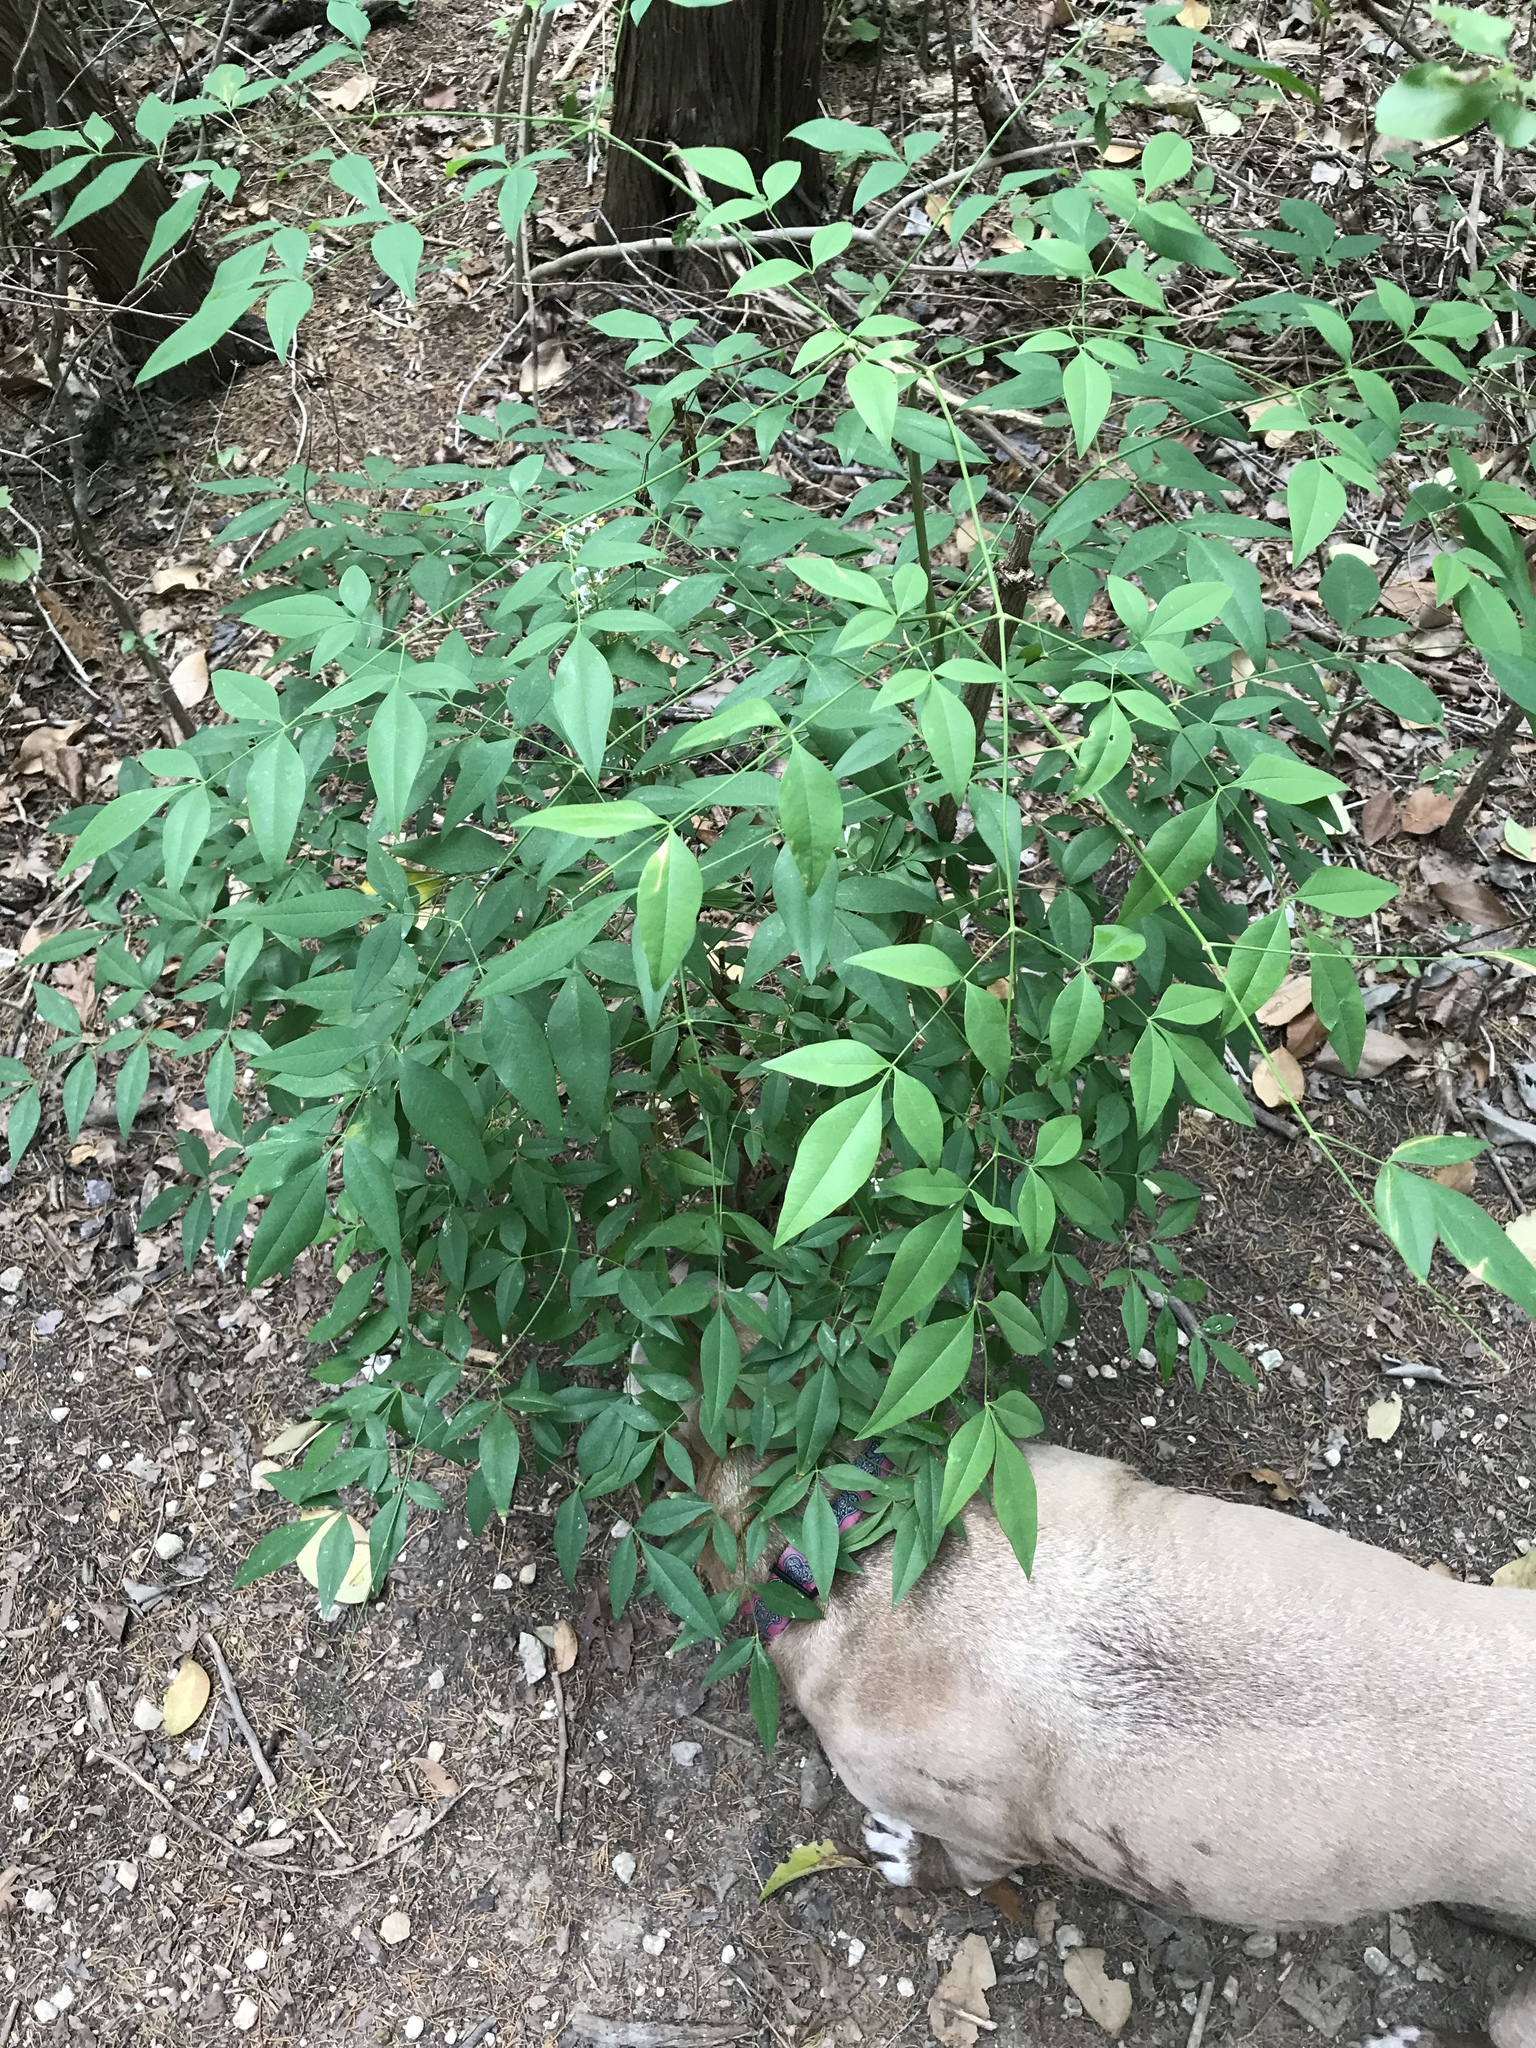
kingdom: Plantae
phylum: Tracheophyta
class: Magnoliopsida
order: Ranunculales
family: Berberidaceae
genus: Nandina
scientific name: Nandina domestica
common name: Sacred bamboo
